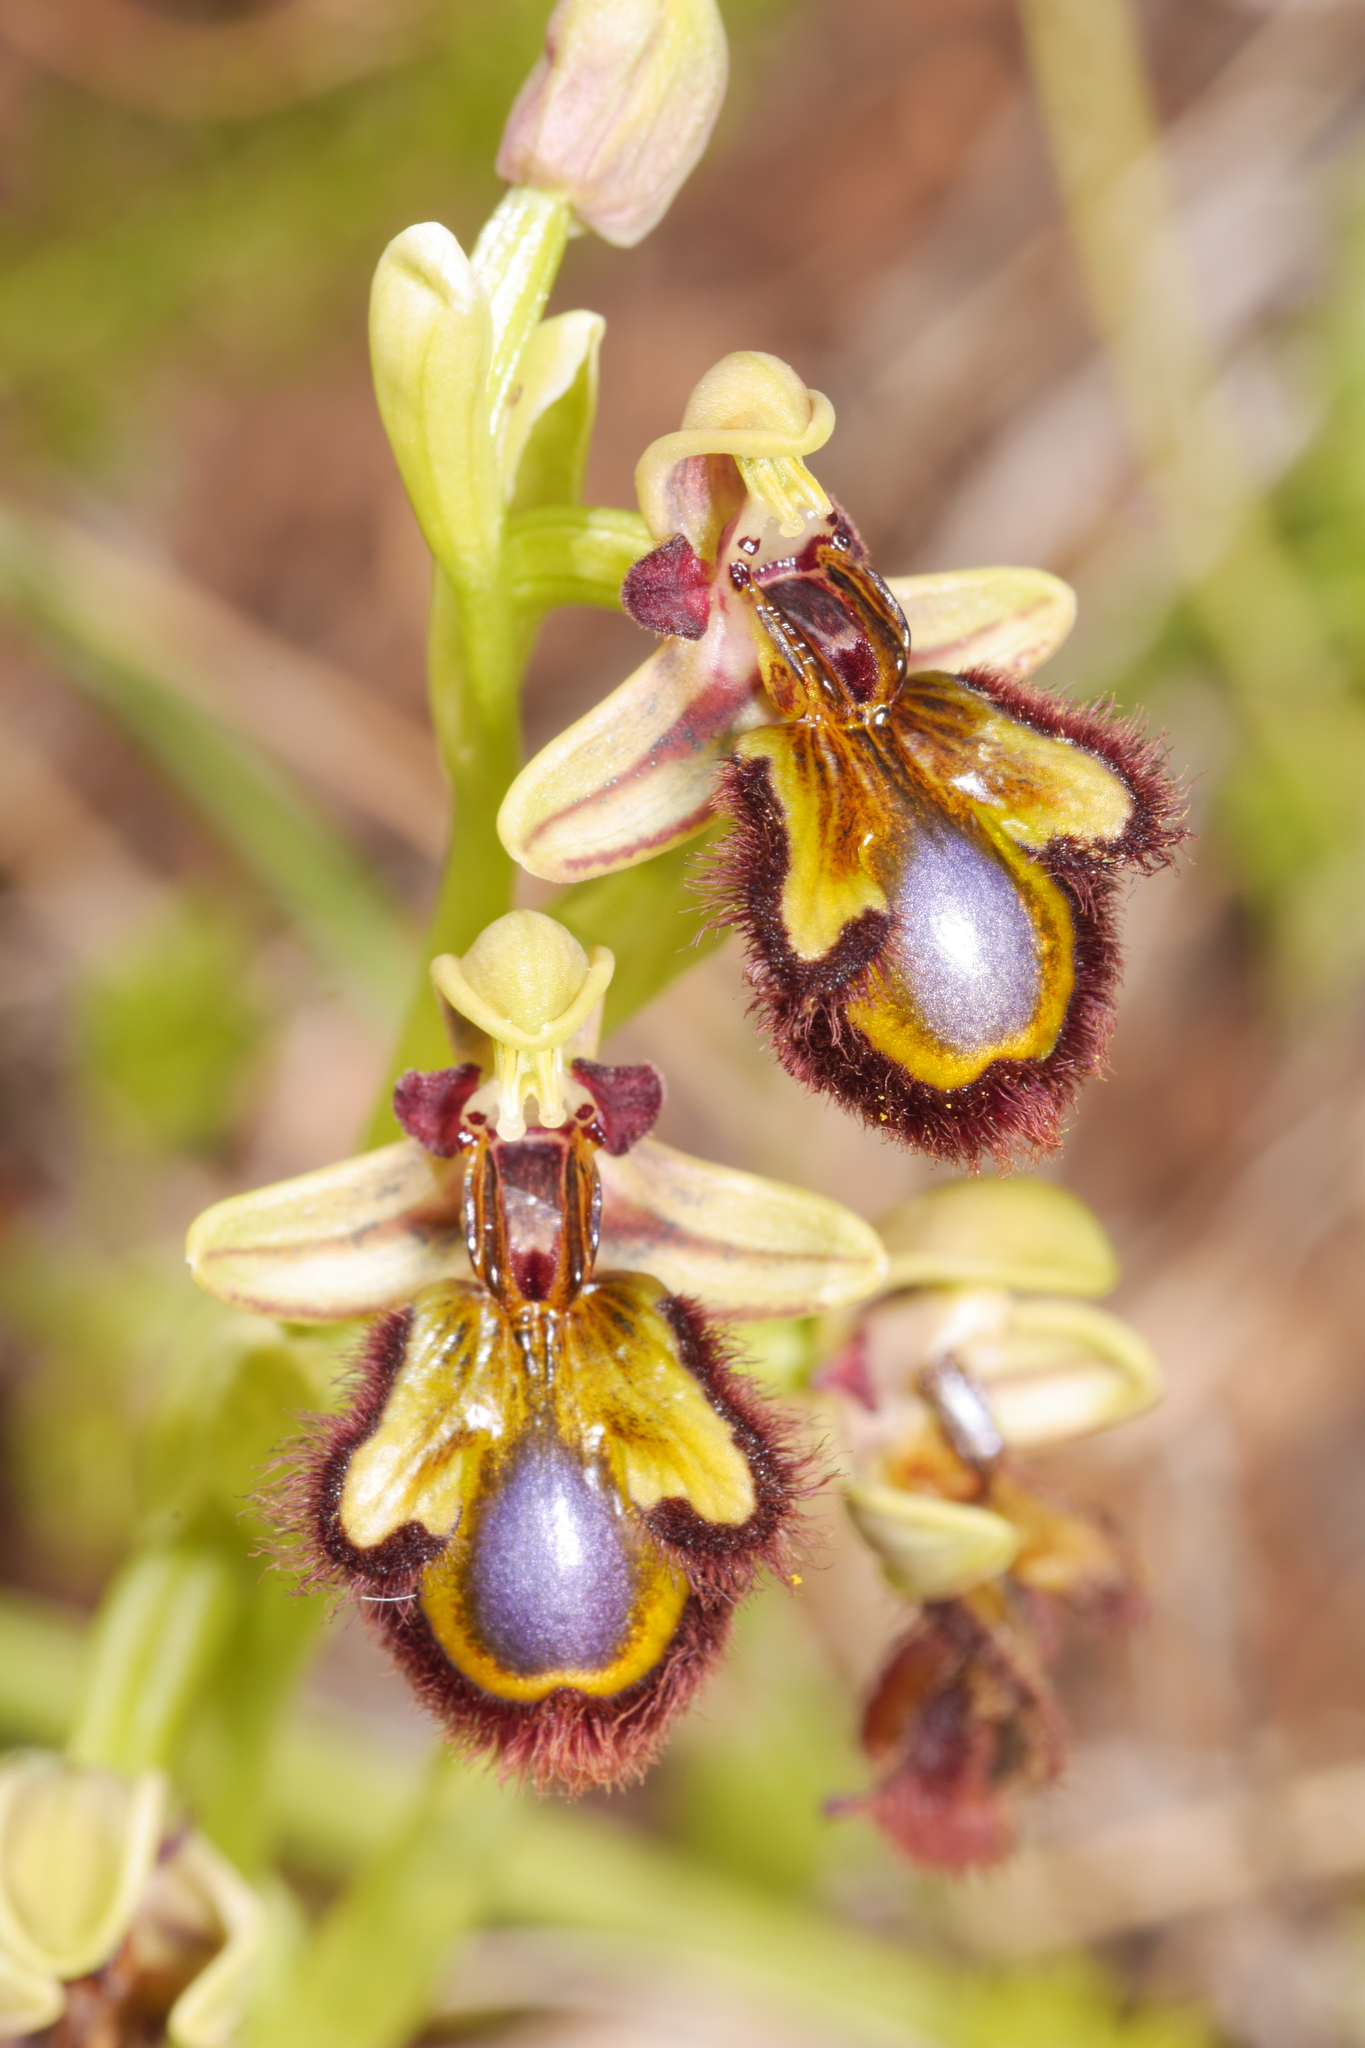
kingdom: Plantae
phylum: Tracheophyta
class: Liliopsida
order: Asparagales
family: Orchidaceae
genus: Ophrys
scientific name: Ophrys speculum
